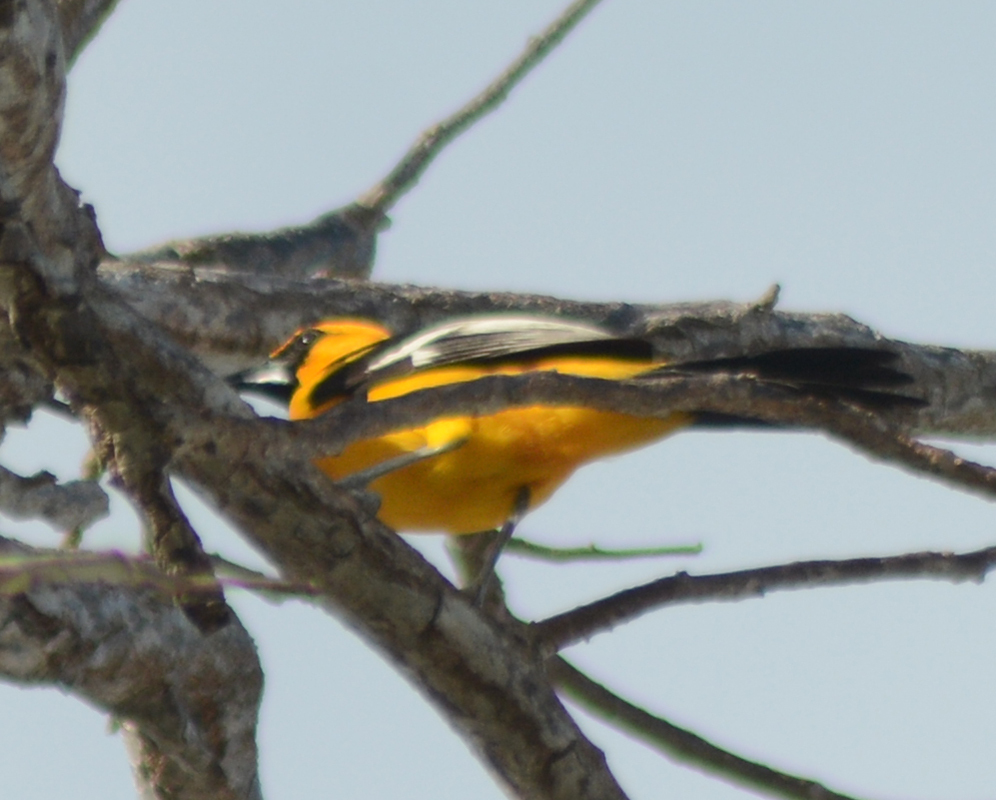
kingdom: Animalia
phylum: Chordata
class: Aves
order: Passeriformes
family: Icteridae
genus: Icterus
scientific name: Icterus gularis
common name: Altamira oriole
